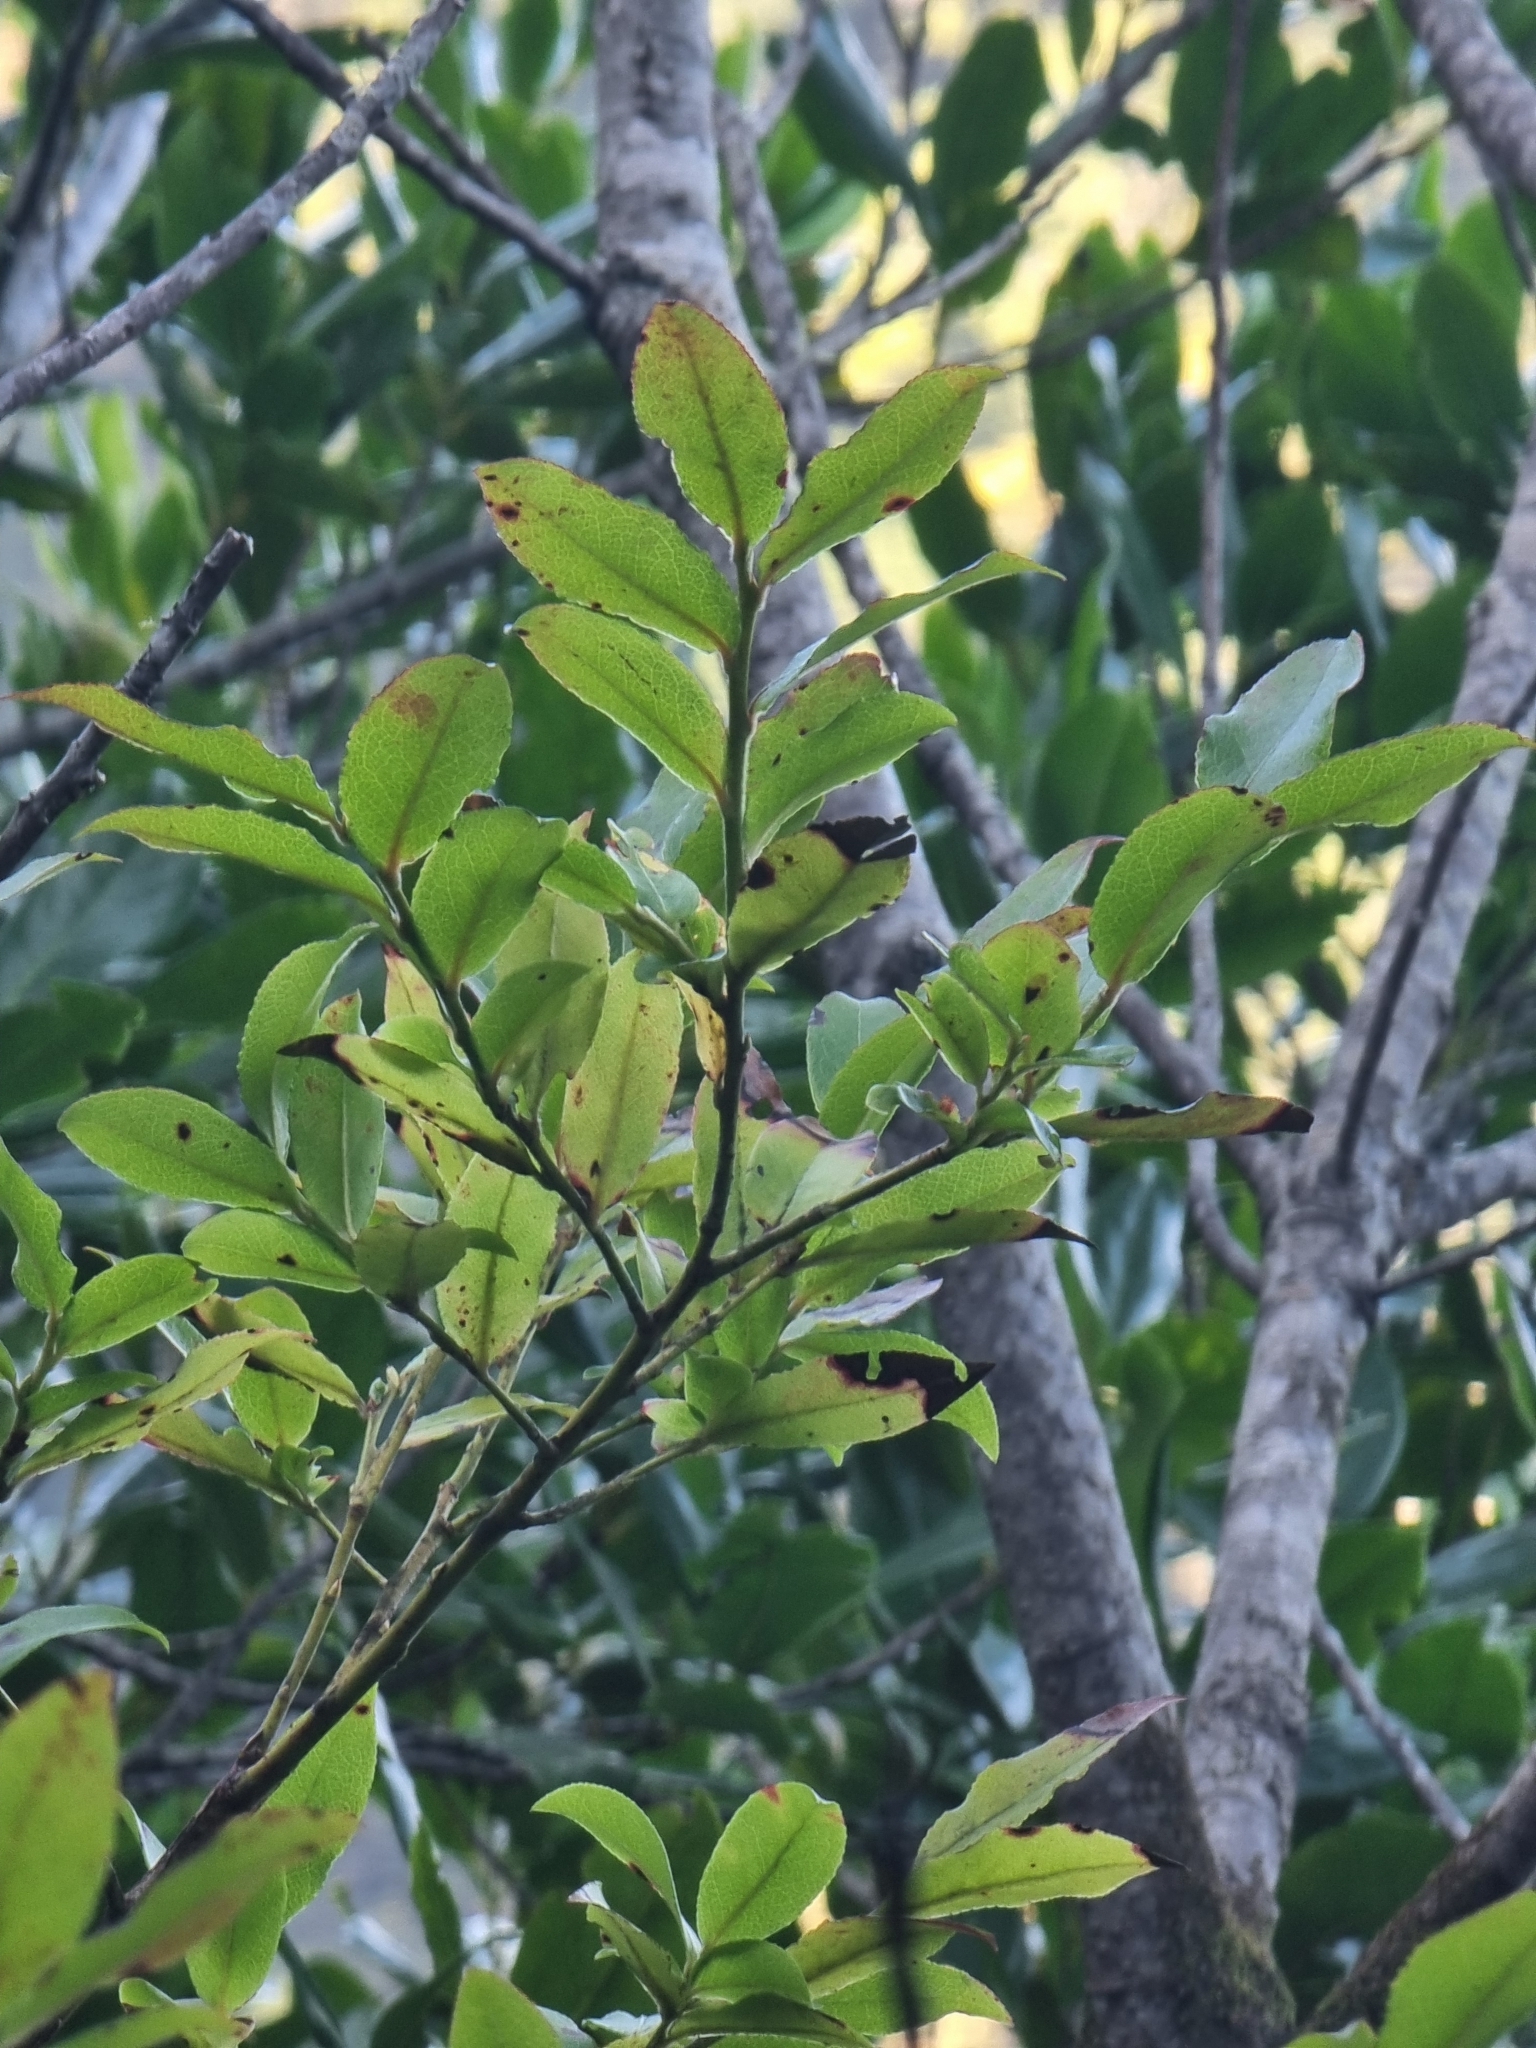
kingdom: Plantae
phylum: Tracheophyta
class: Magnoliopsida
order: Ericales
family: Ericaceae
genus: Vaccinium
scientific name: Vaccinium padifolium
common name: Madeiran blueberry
